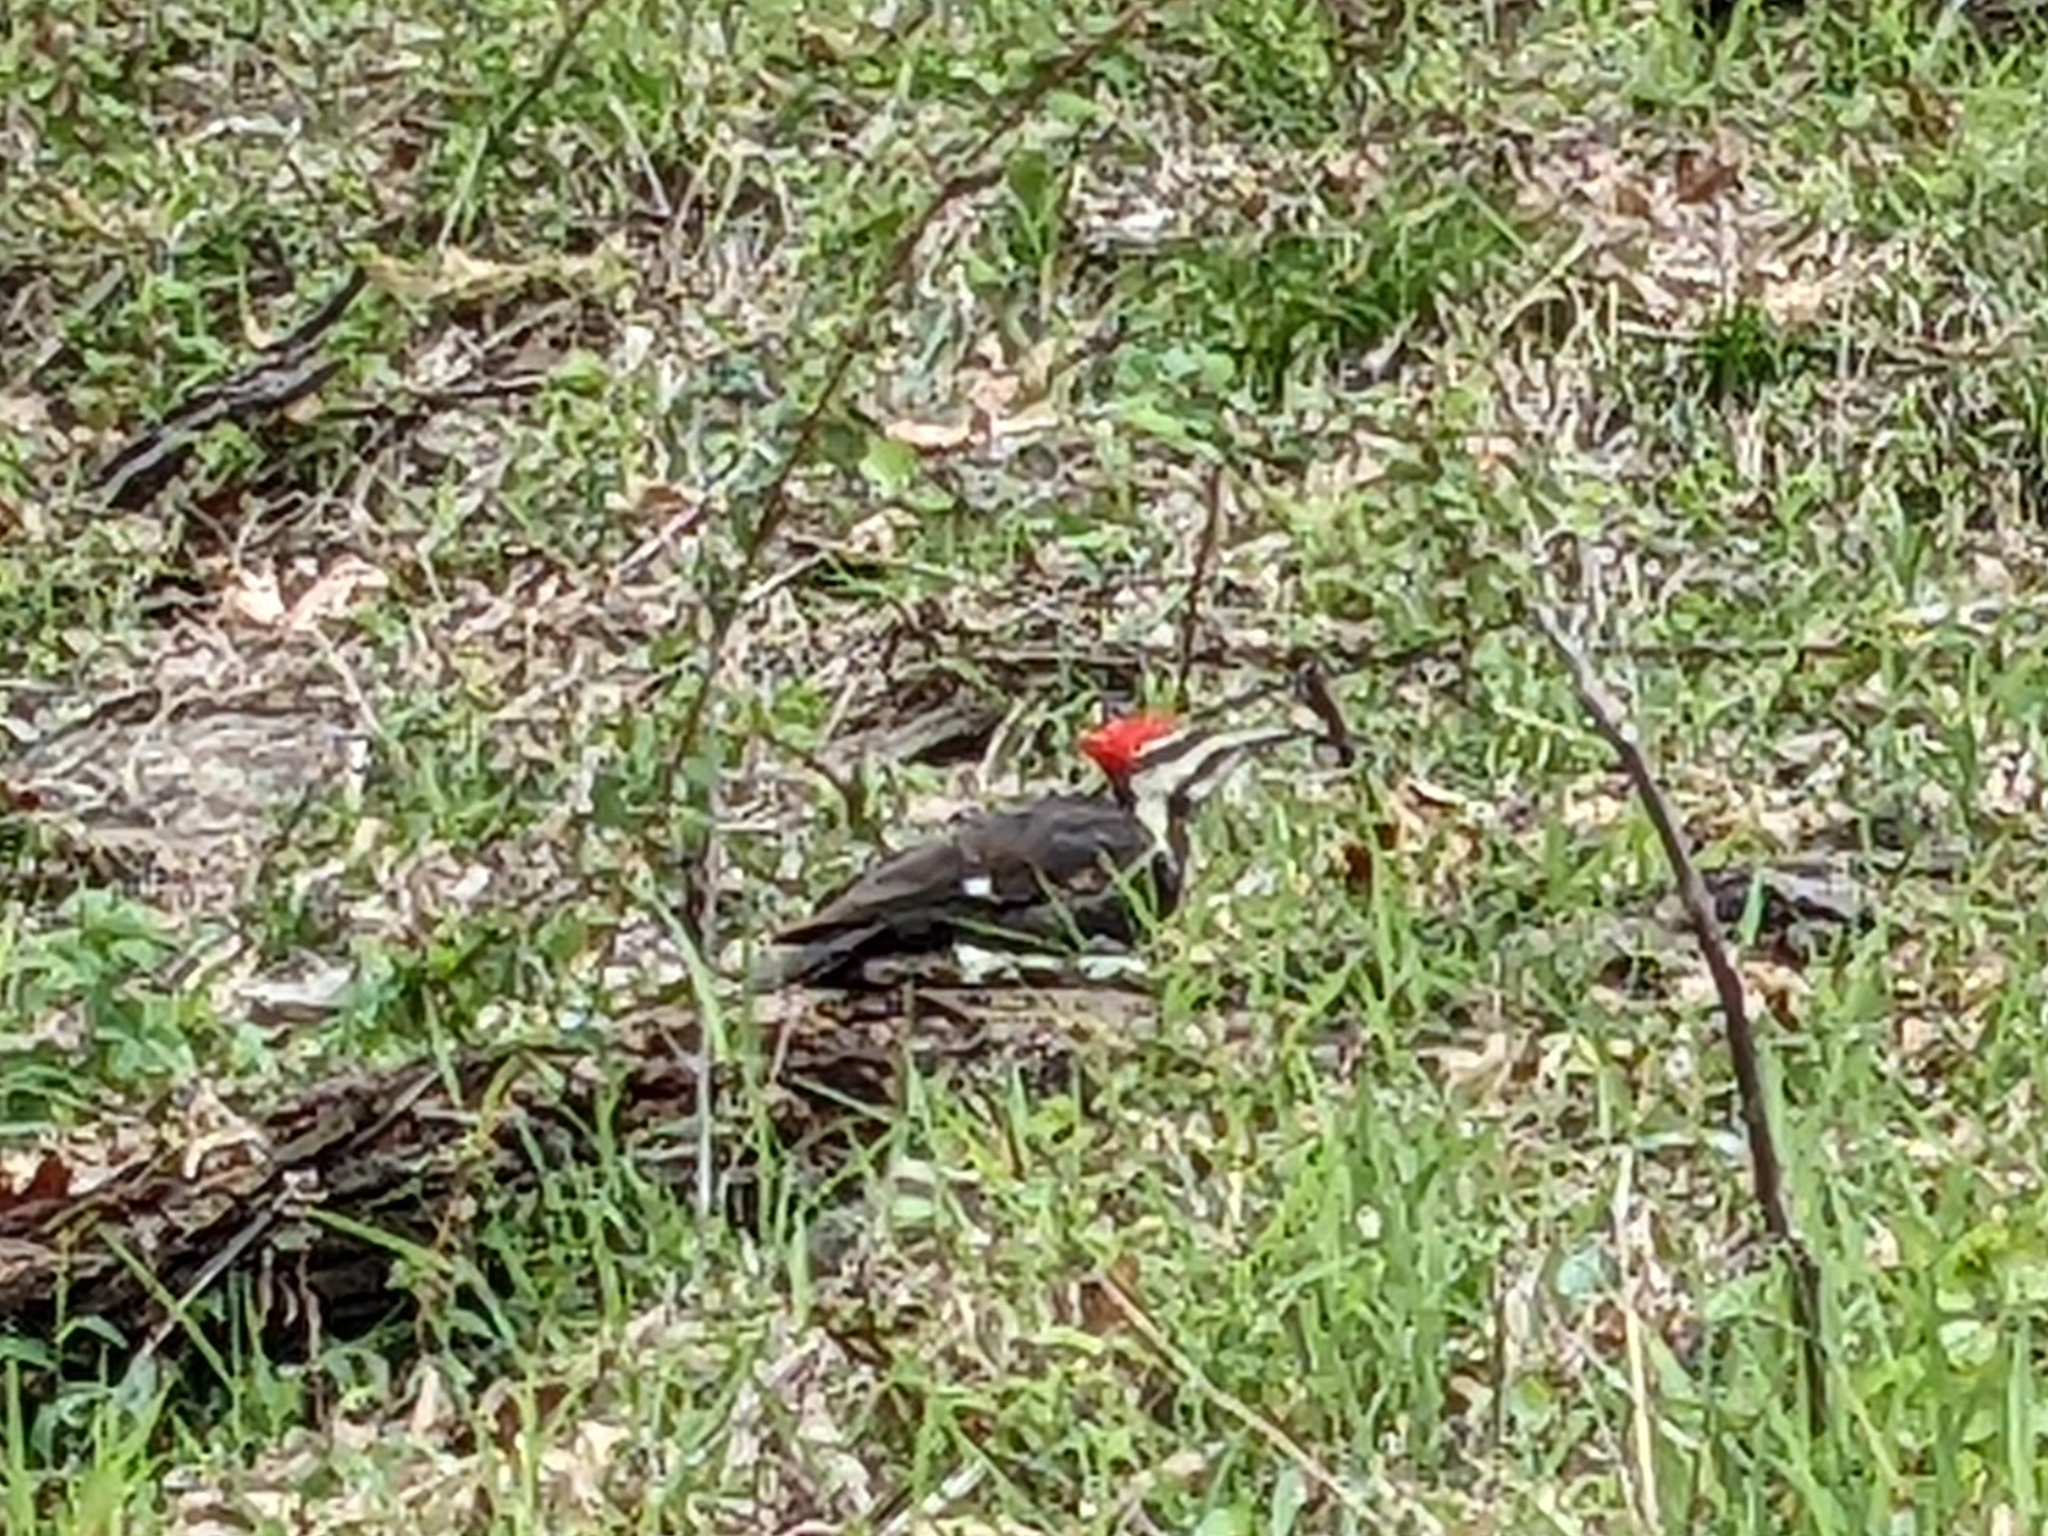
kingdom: Animalia
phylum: Chordata
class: Aves
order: Piciformes
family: Picidae
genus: Dryocopus
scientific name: Dryocopus pileatus
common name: Pileated woodpecker
